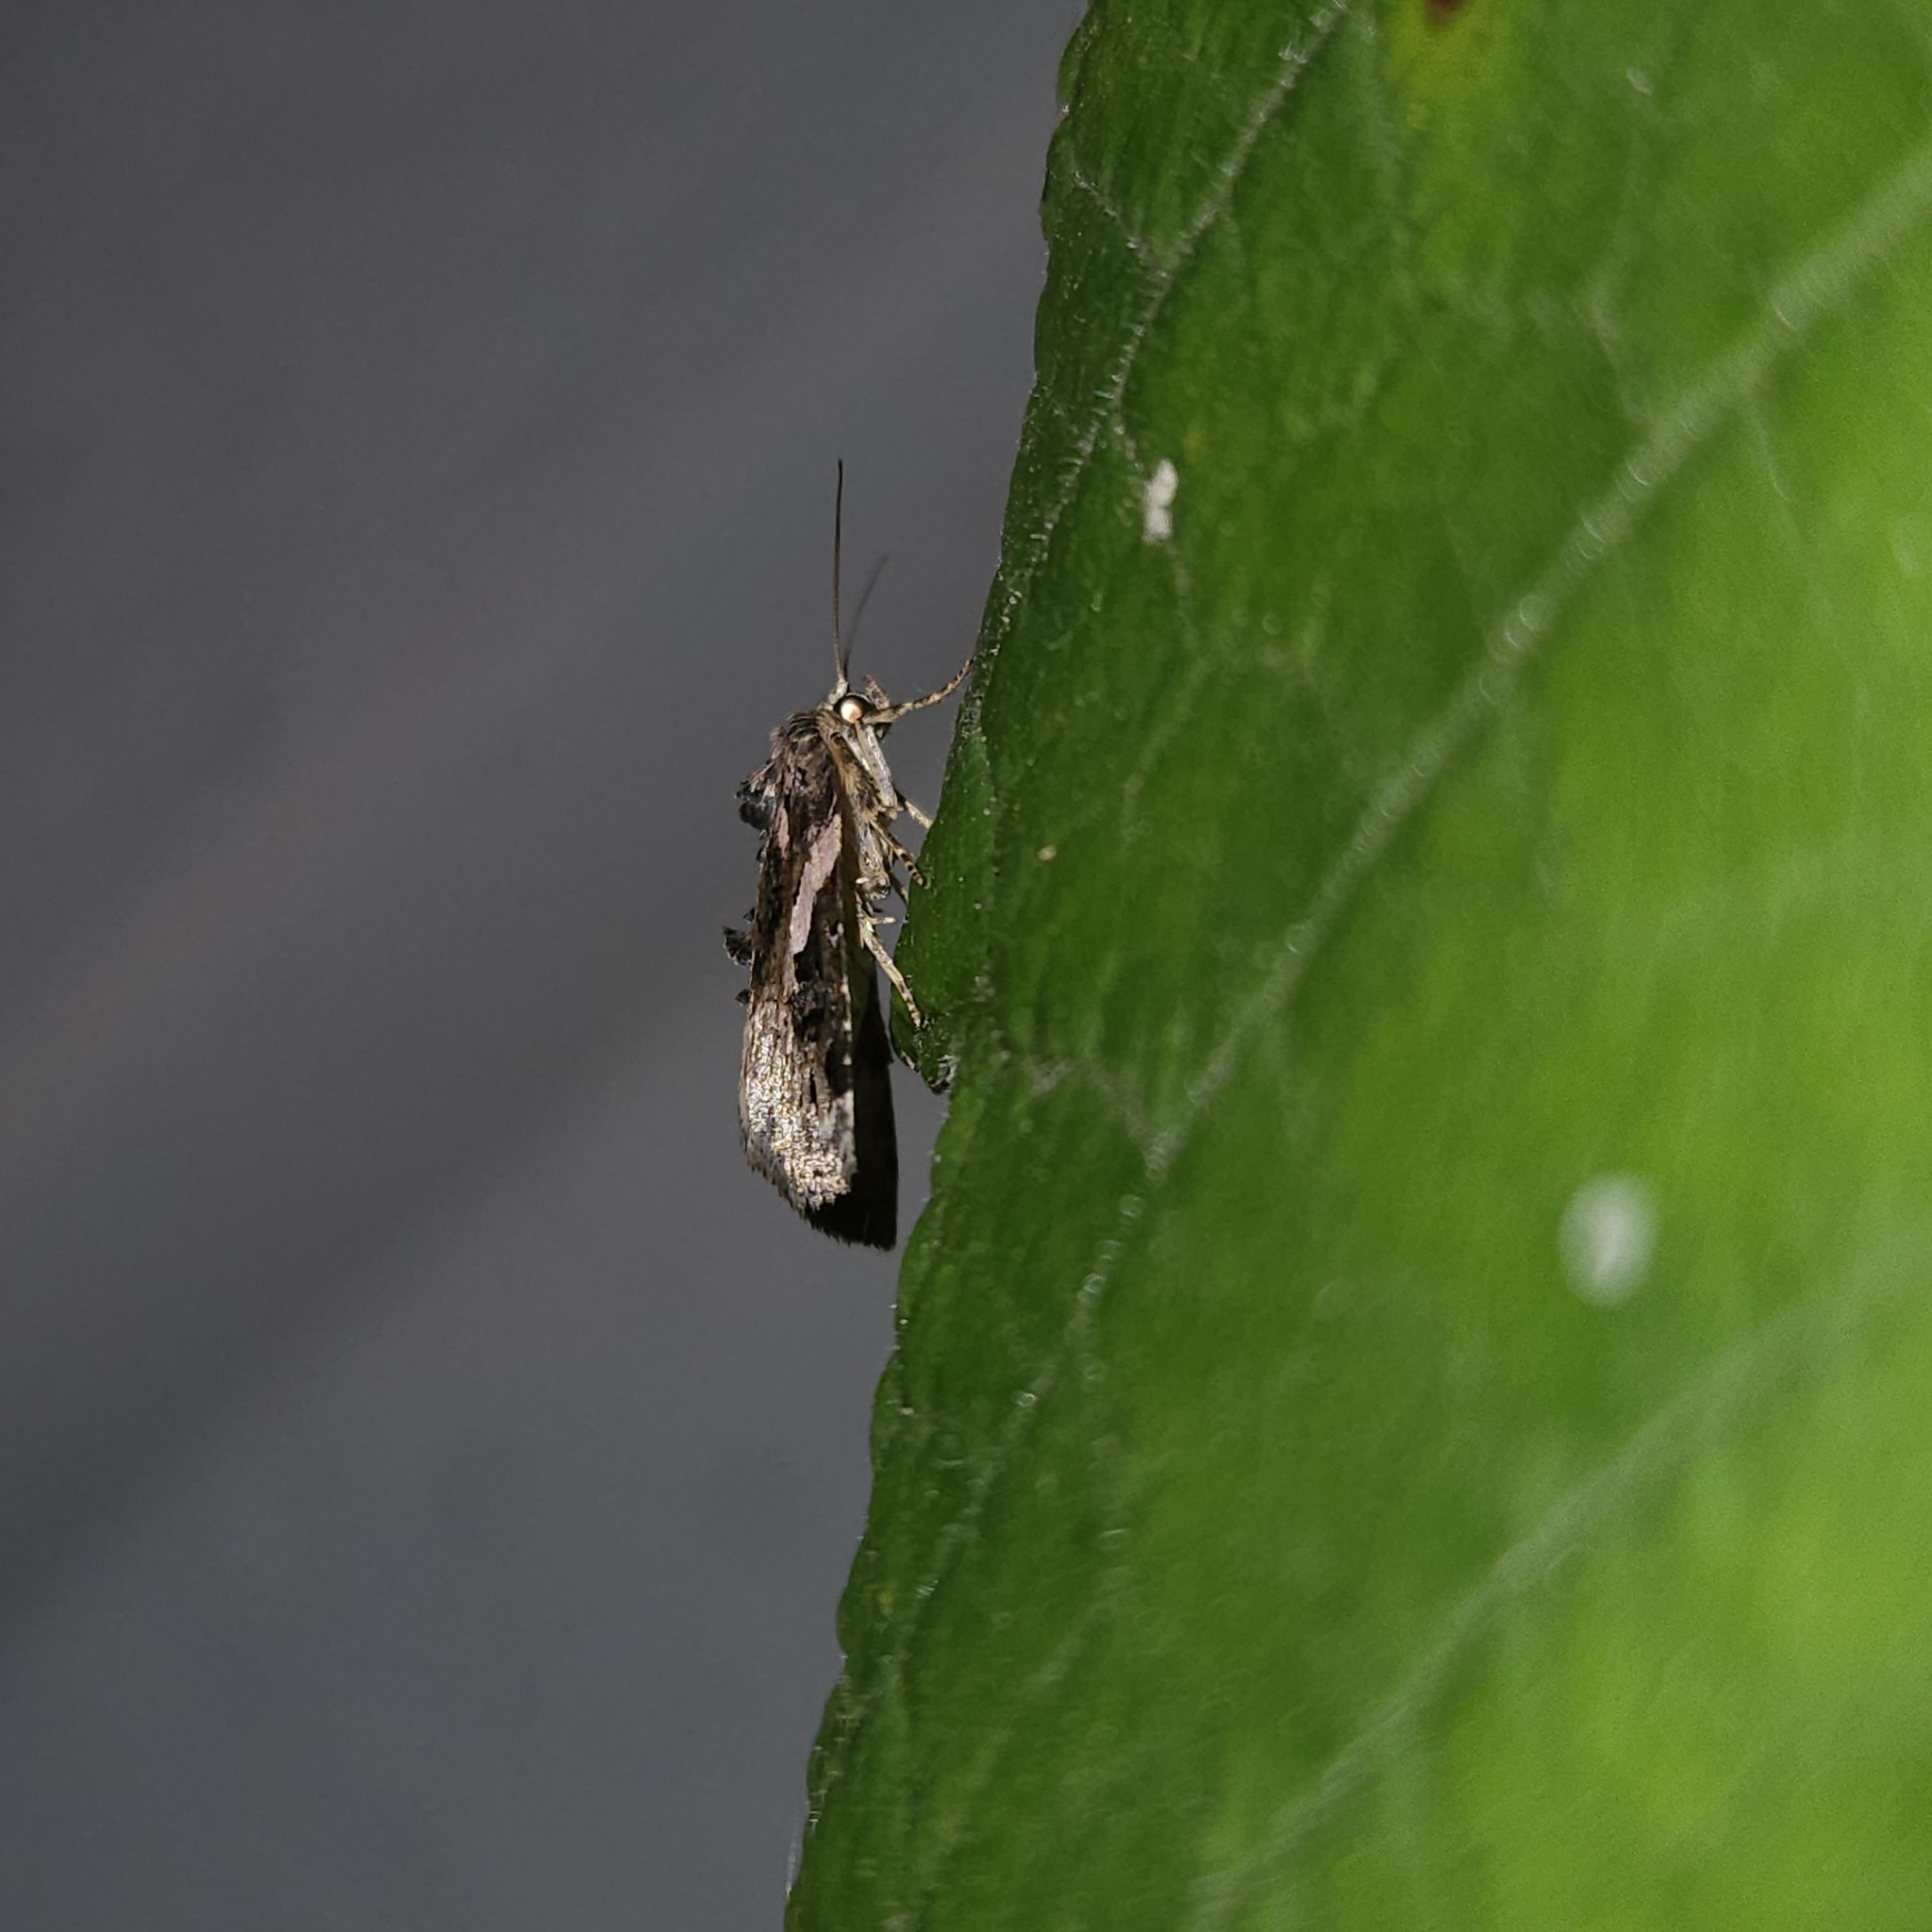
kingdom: Animalia
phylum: Arthropoda
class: Insecta
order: Lepidoptera
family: Noctuidae
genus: Pseudeustrotia
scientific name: Pseudeustrotia carneola
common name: Pink-barred lithacodia moth
